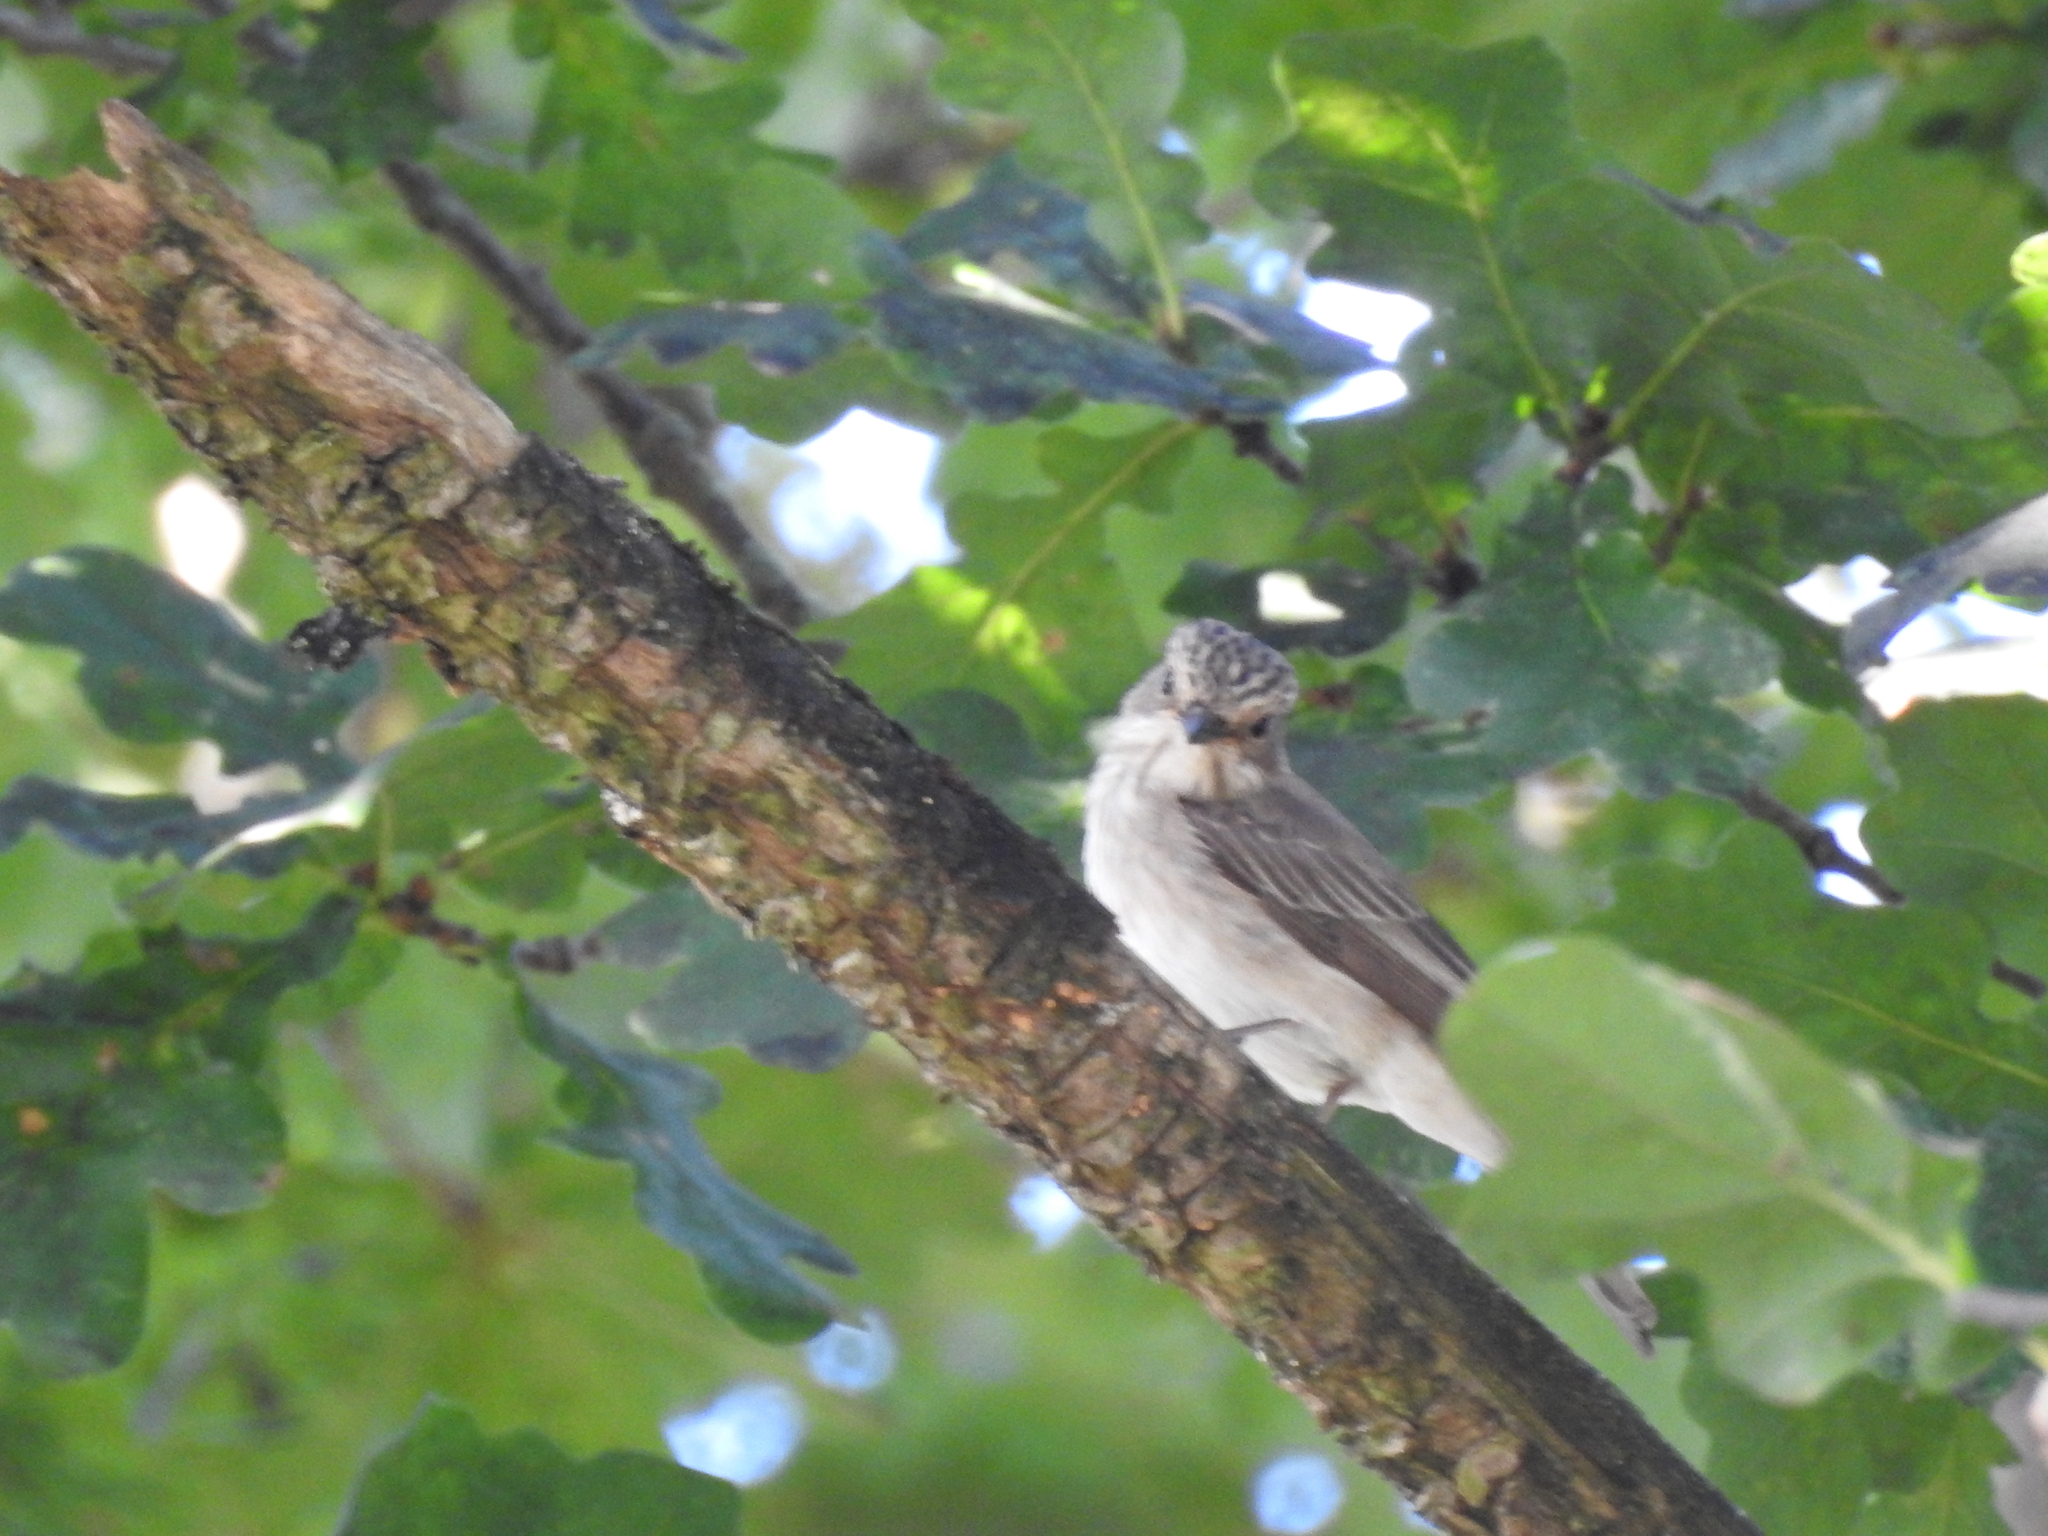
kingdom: Animalia
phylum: Chordata
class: Aves
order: Passeriformes
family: Muscicapidae
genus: Muscicapa
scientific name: Muscicapa striata
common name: Spotted flycatcher
